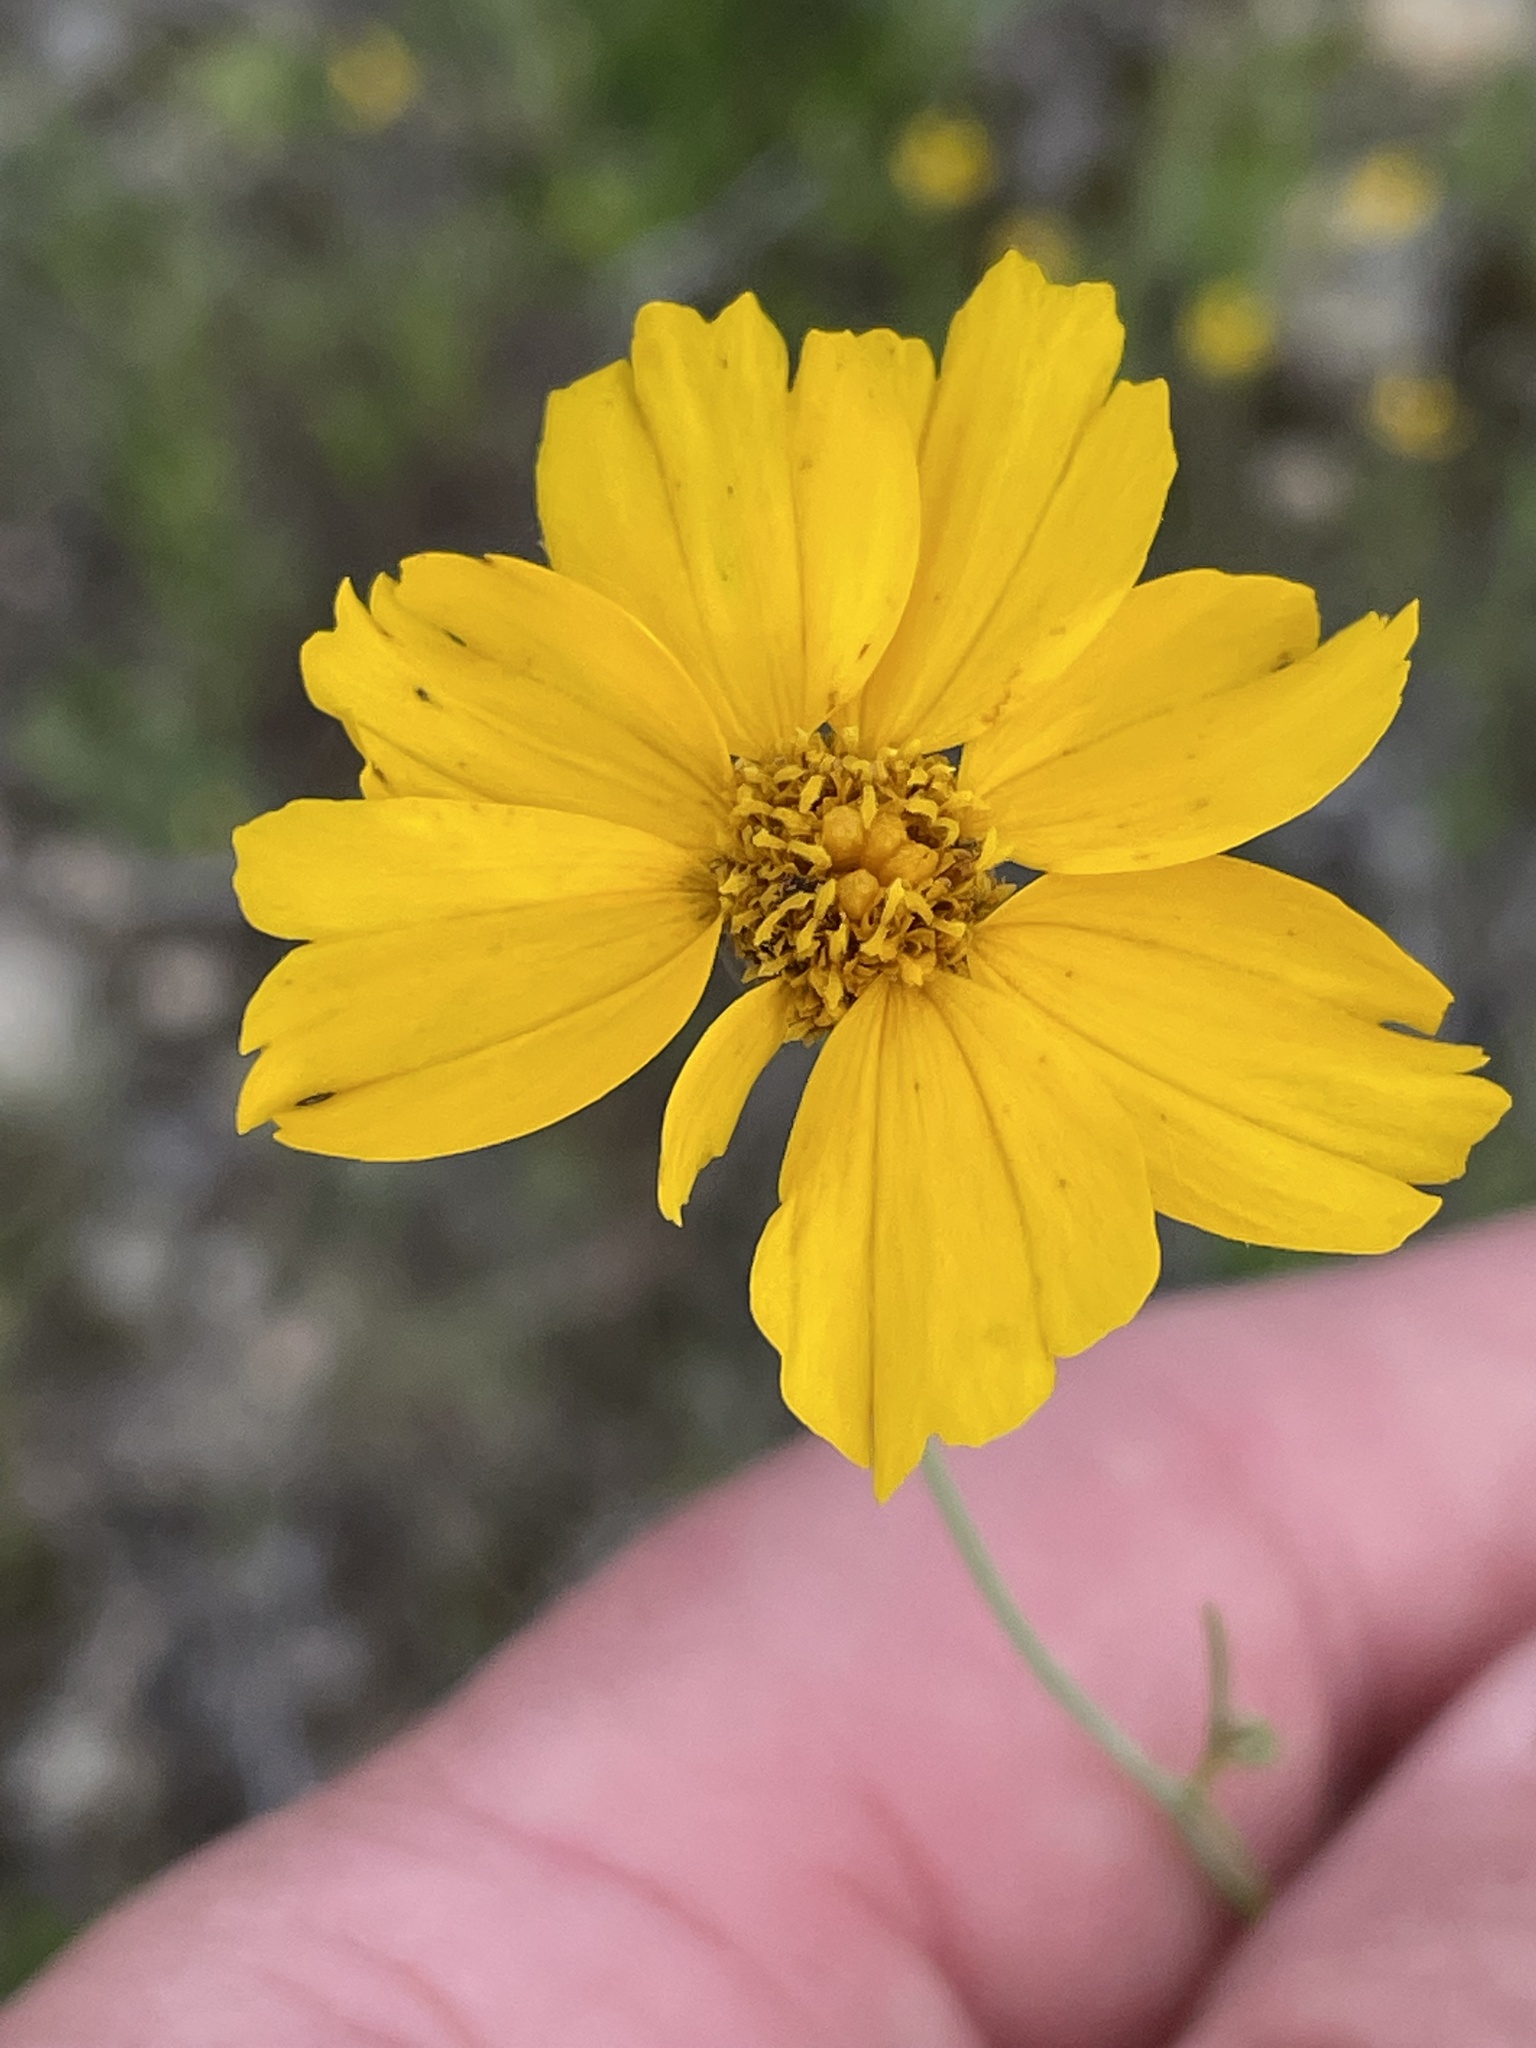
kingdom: Plantae
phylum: Tracheophyta
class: Magnoliopsida
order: Asterales
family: Asteraceae
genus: Thelesperma
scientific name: Thelesperma simplicifolium
